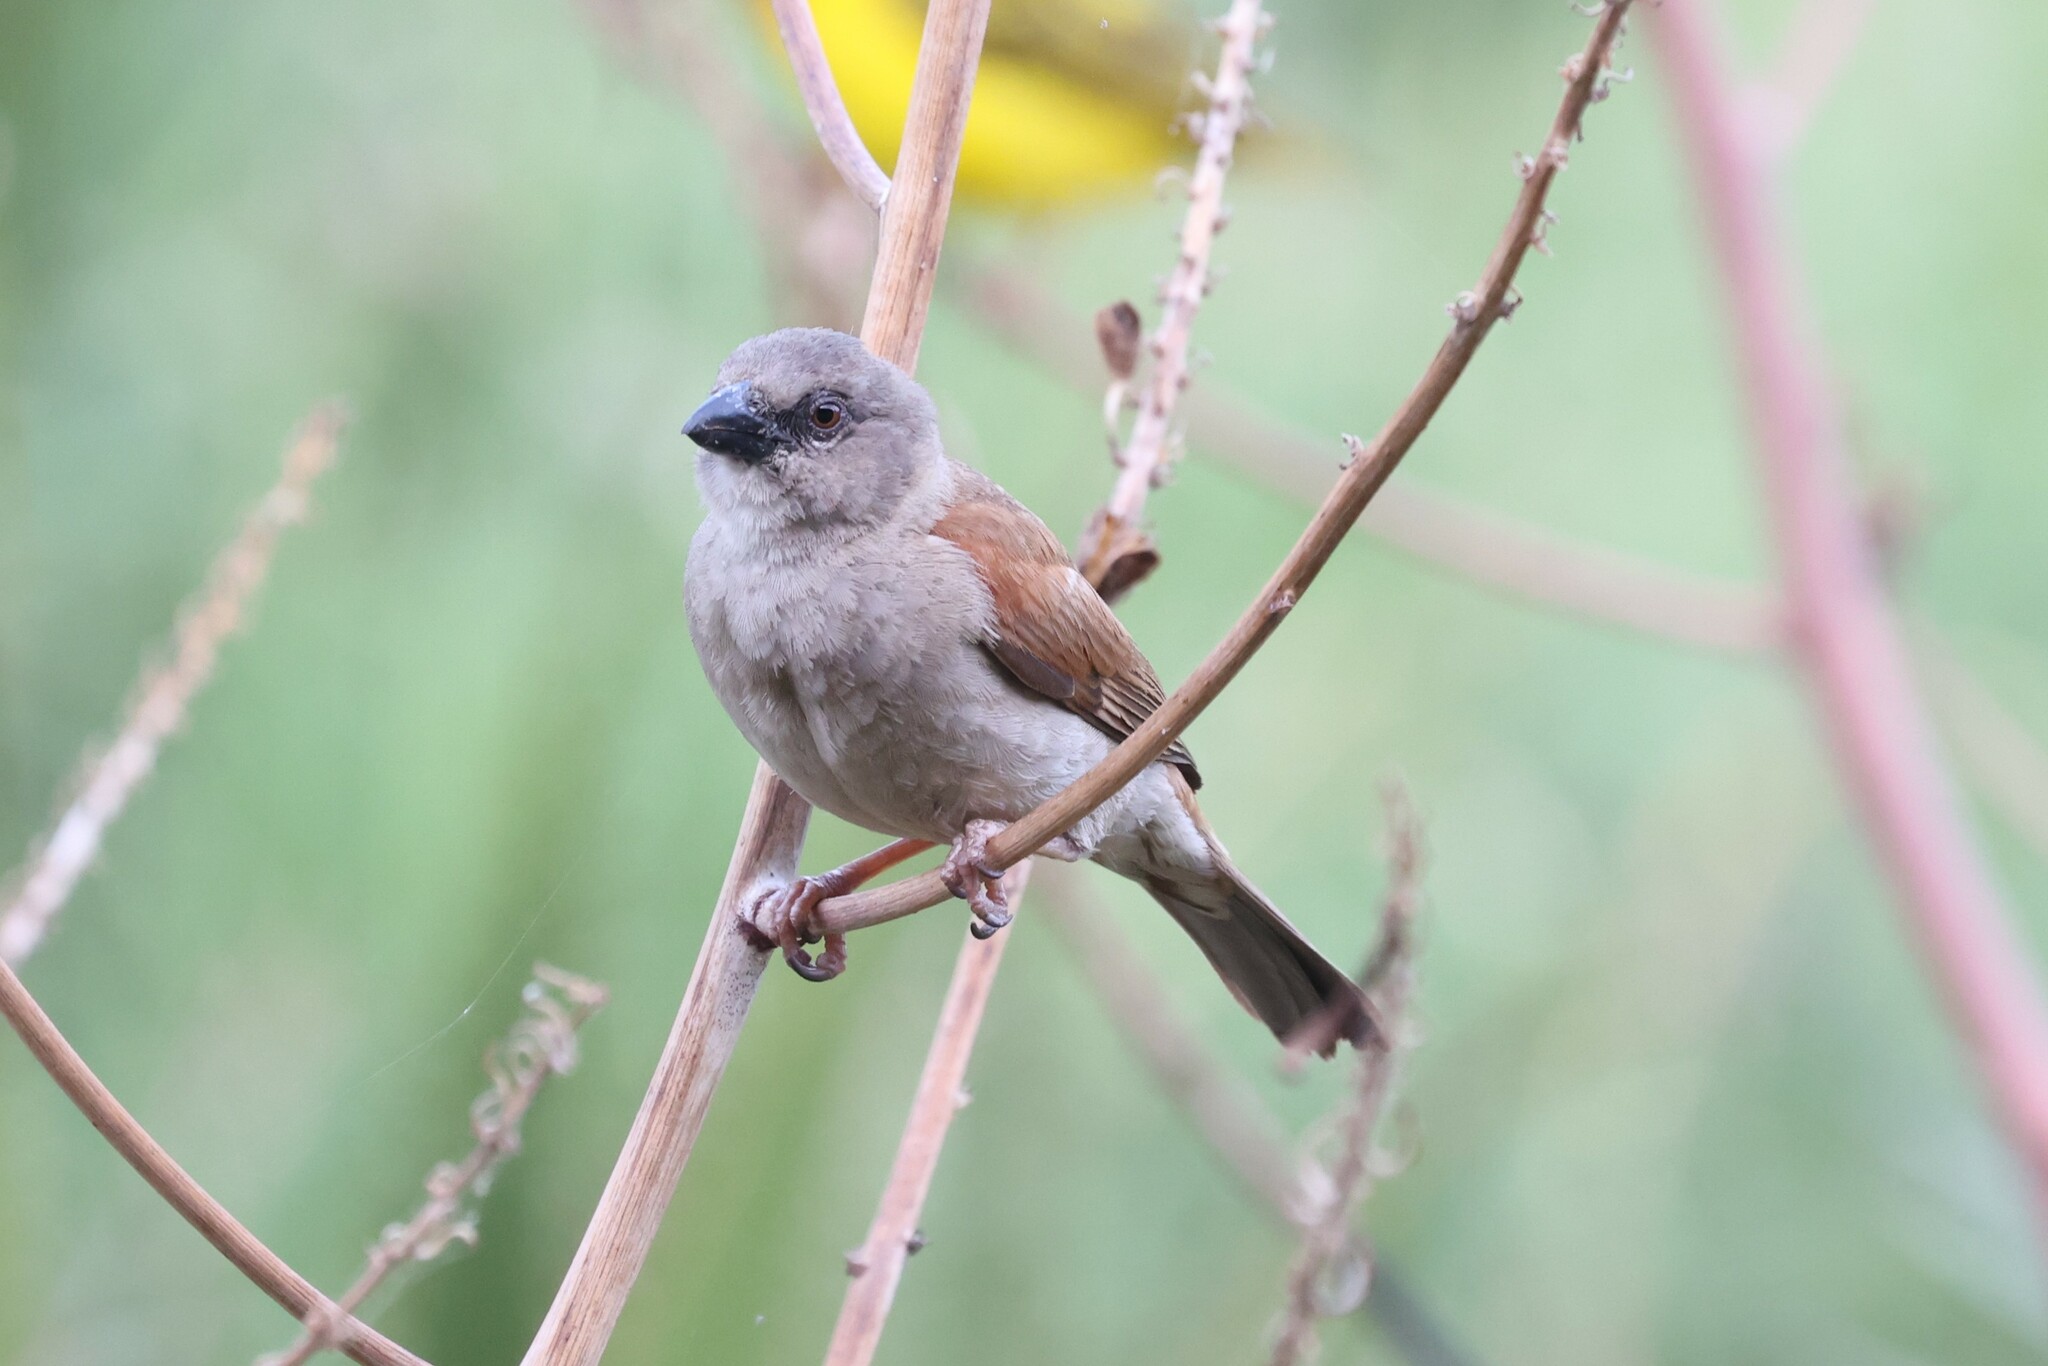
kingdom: Animalia
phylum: Chordata
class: Aves
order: Passeriformes
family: Passeridae
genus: Passer
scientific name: Passer griseus
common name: Northern grey-headed sparrow
